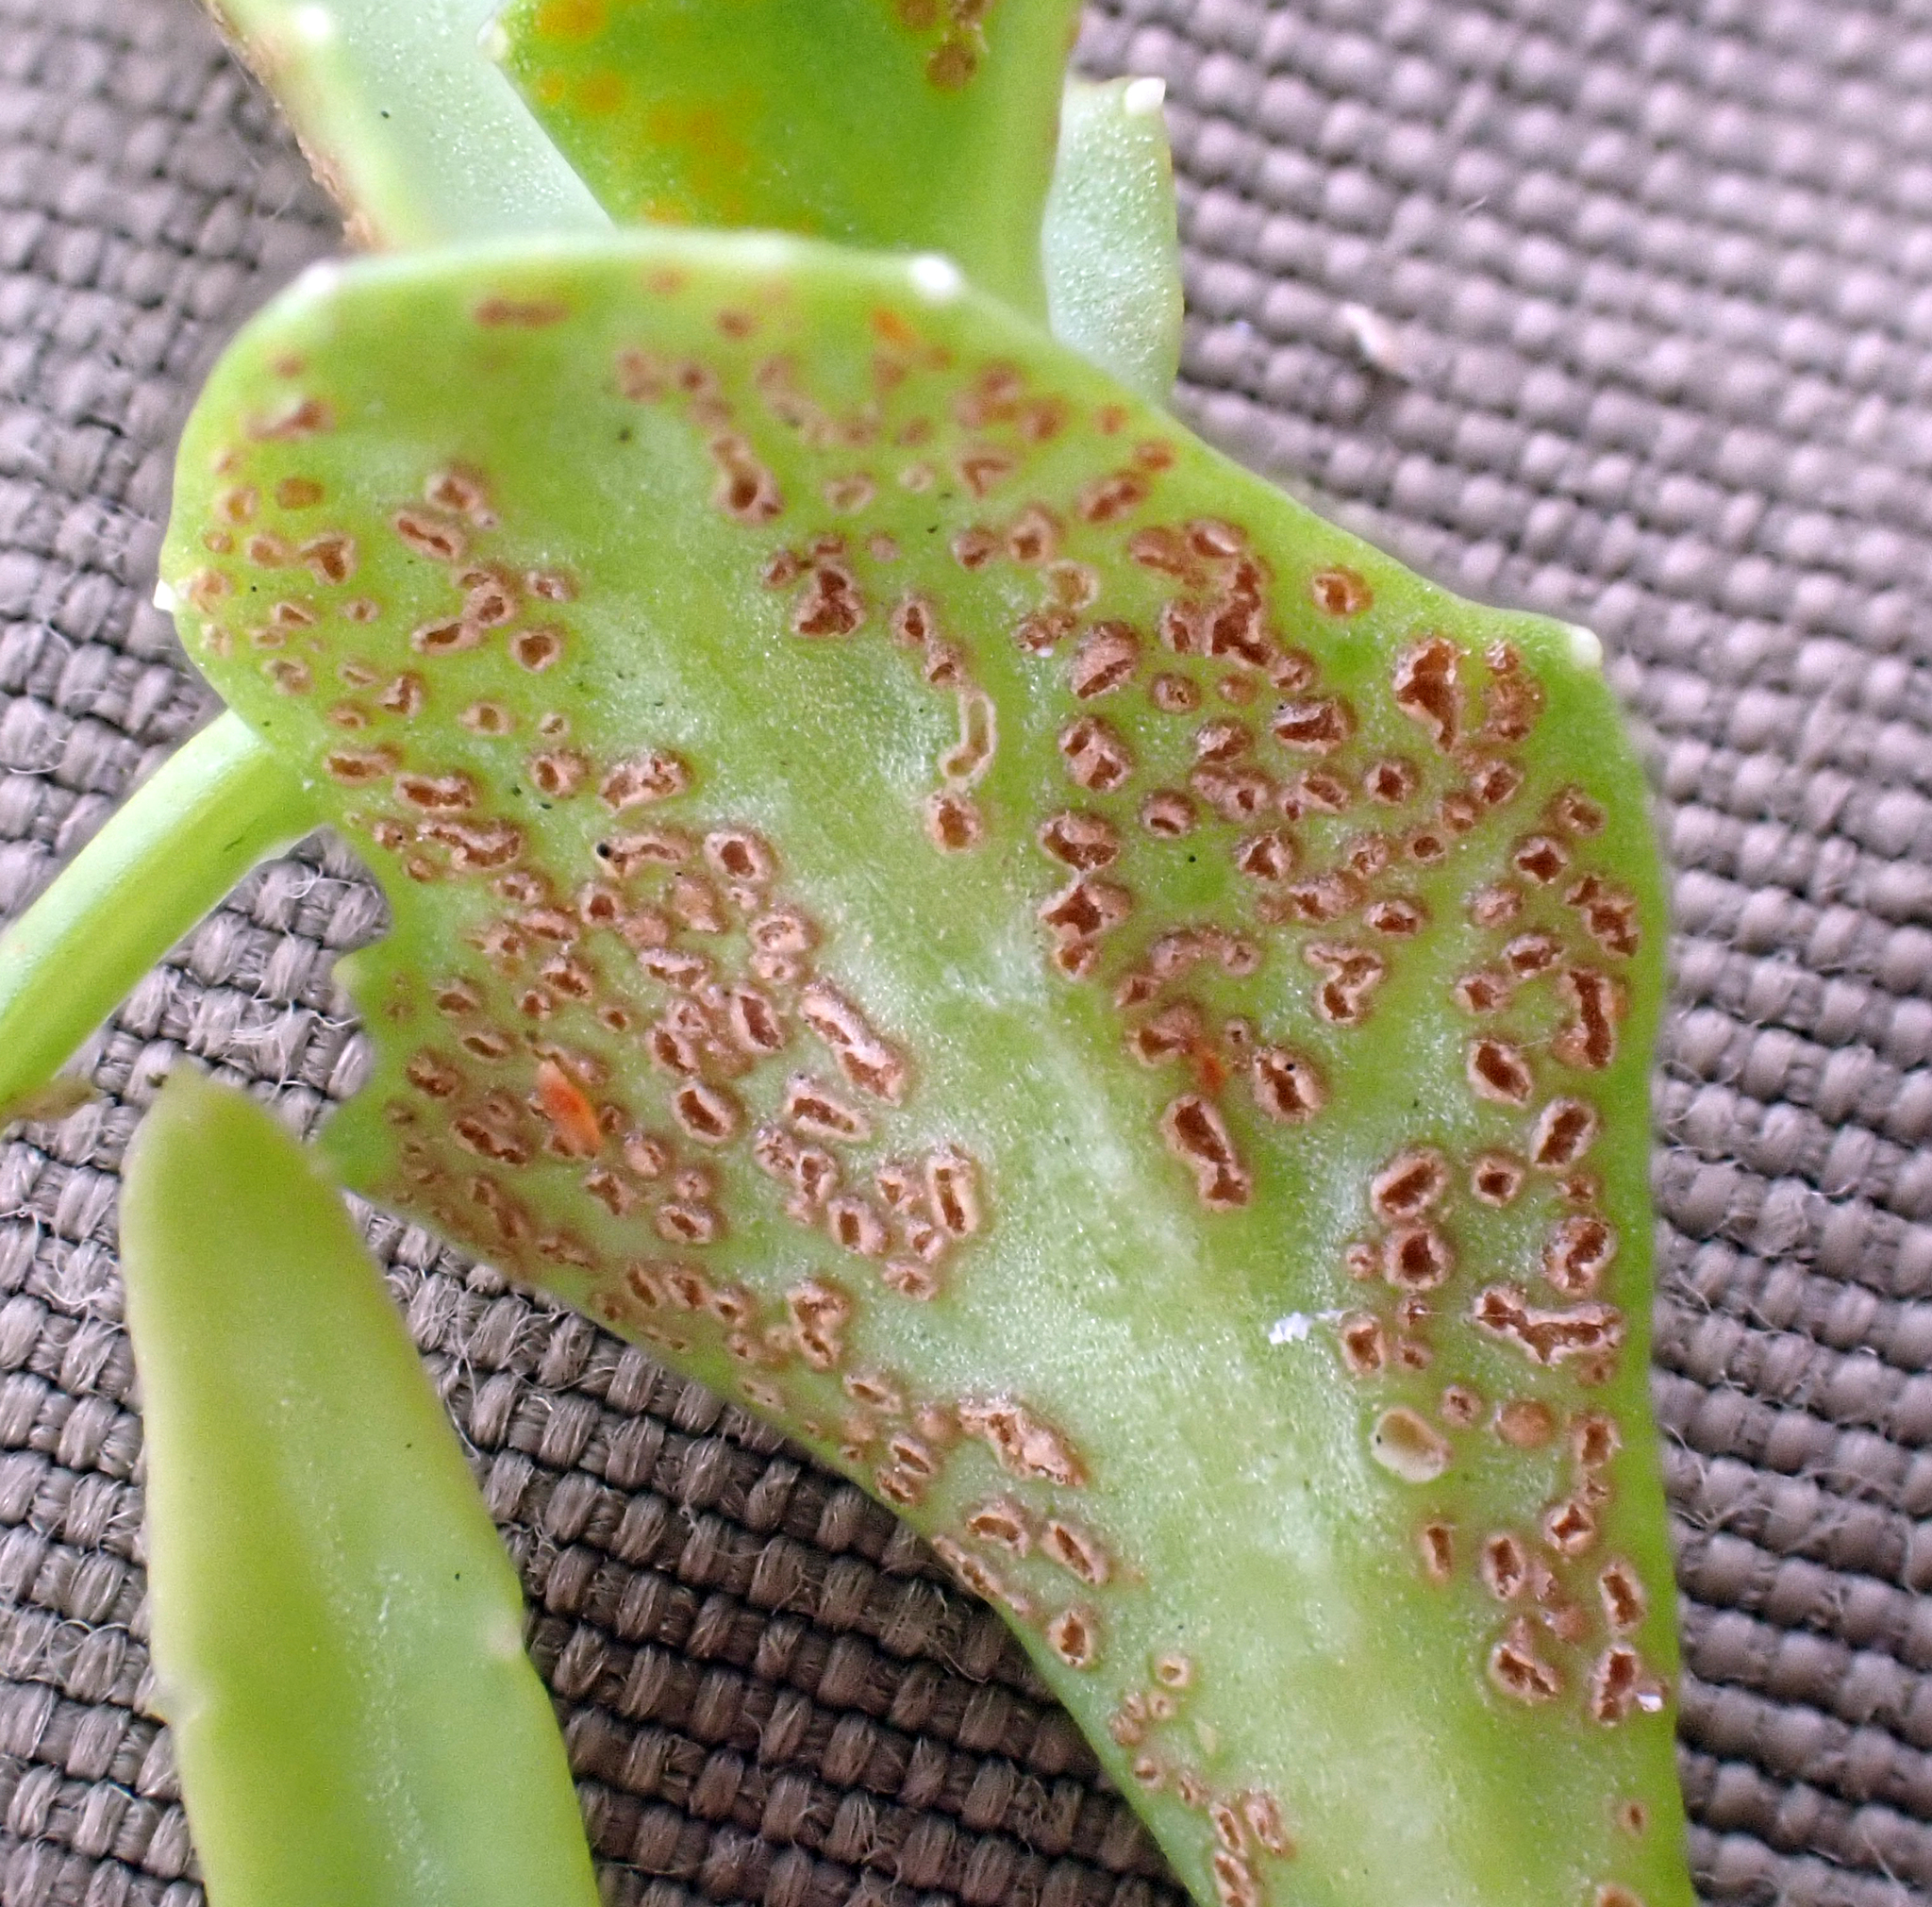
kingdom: Fungi
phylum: Basidiomycota
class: Pucciniomycetes
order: Pucciniales
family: Pucciniaceae
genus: Puccinia
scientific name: Puccinia aucta
